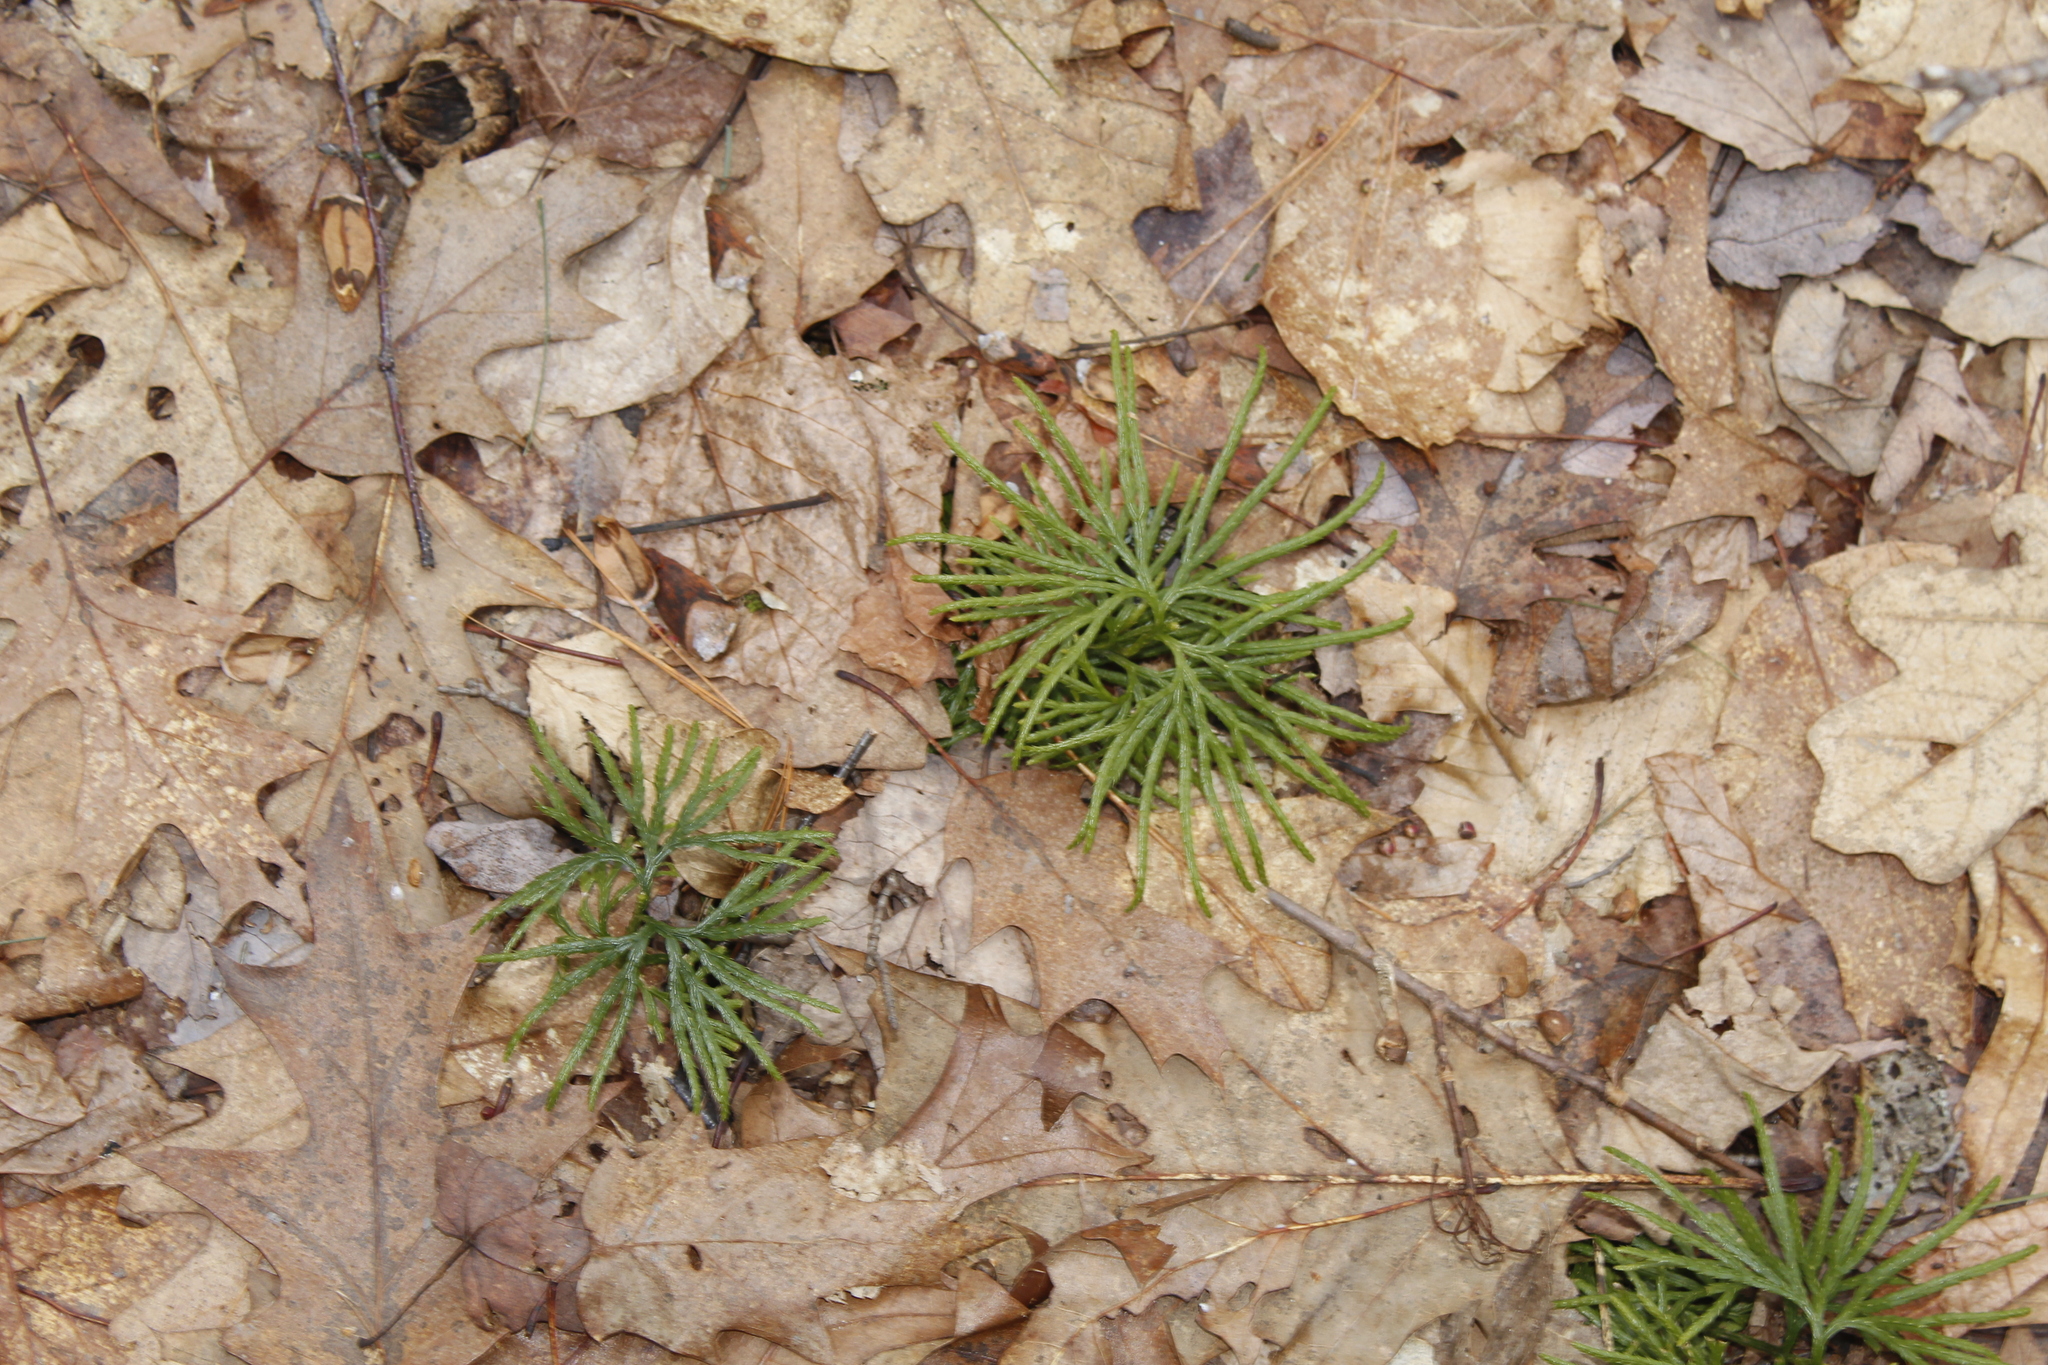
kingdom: Plantae
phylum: Tracheophyta
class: Lycopodiopsida
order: Lycopodiales
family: Lycopodiaceae
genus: Diphasiastrum
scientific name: Diphasiastrum digitatum
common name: Southern running-pine
